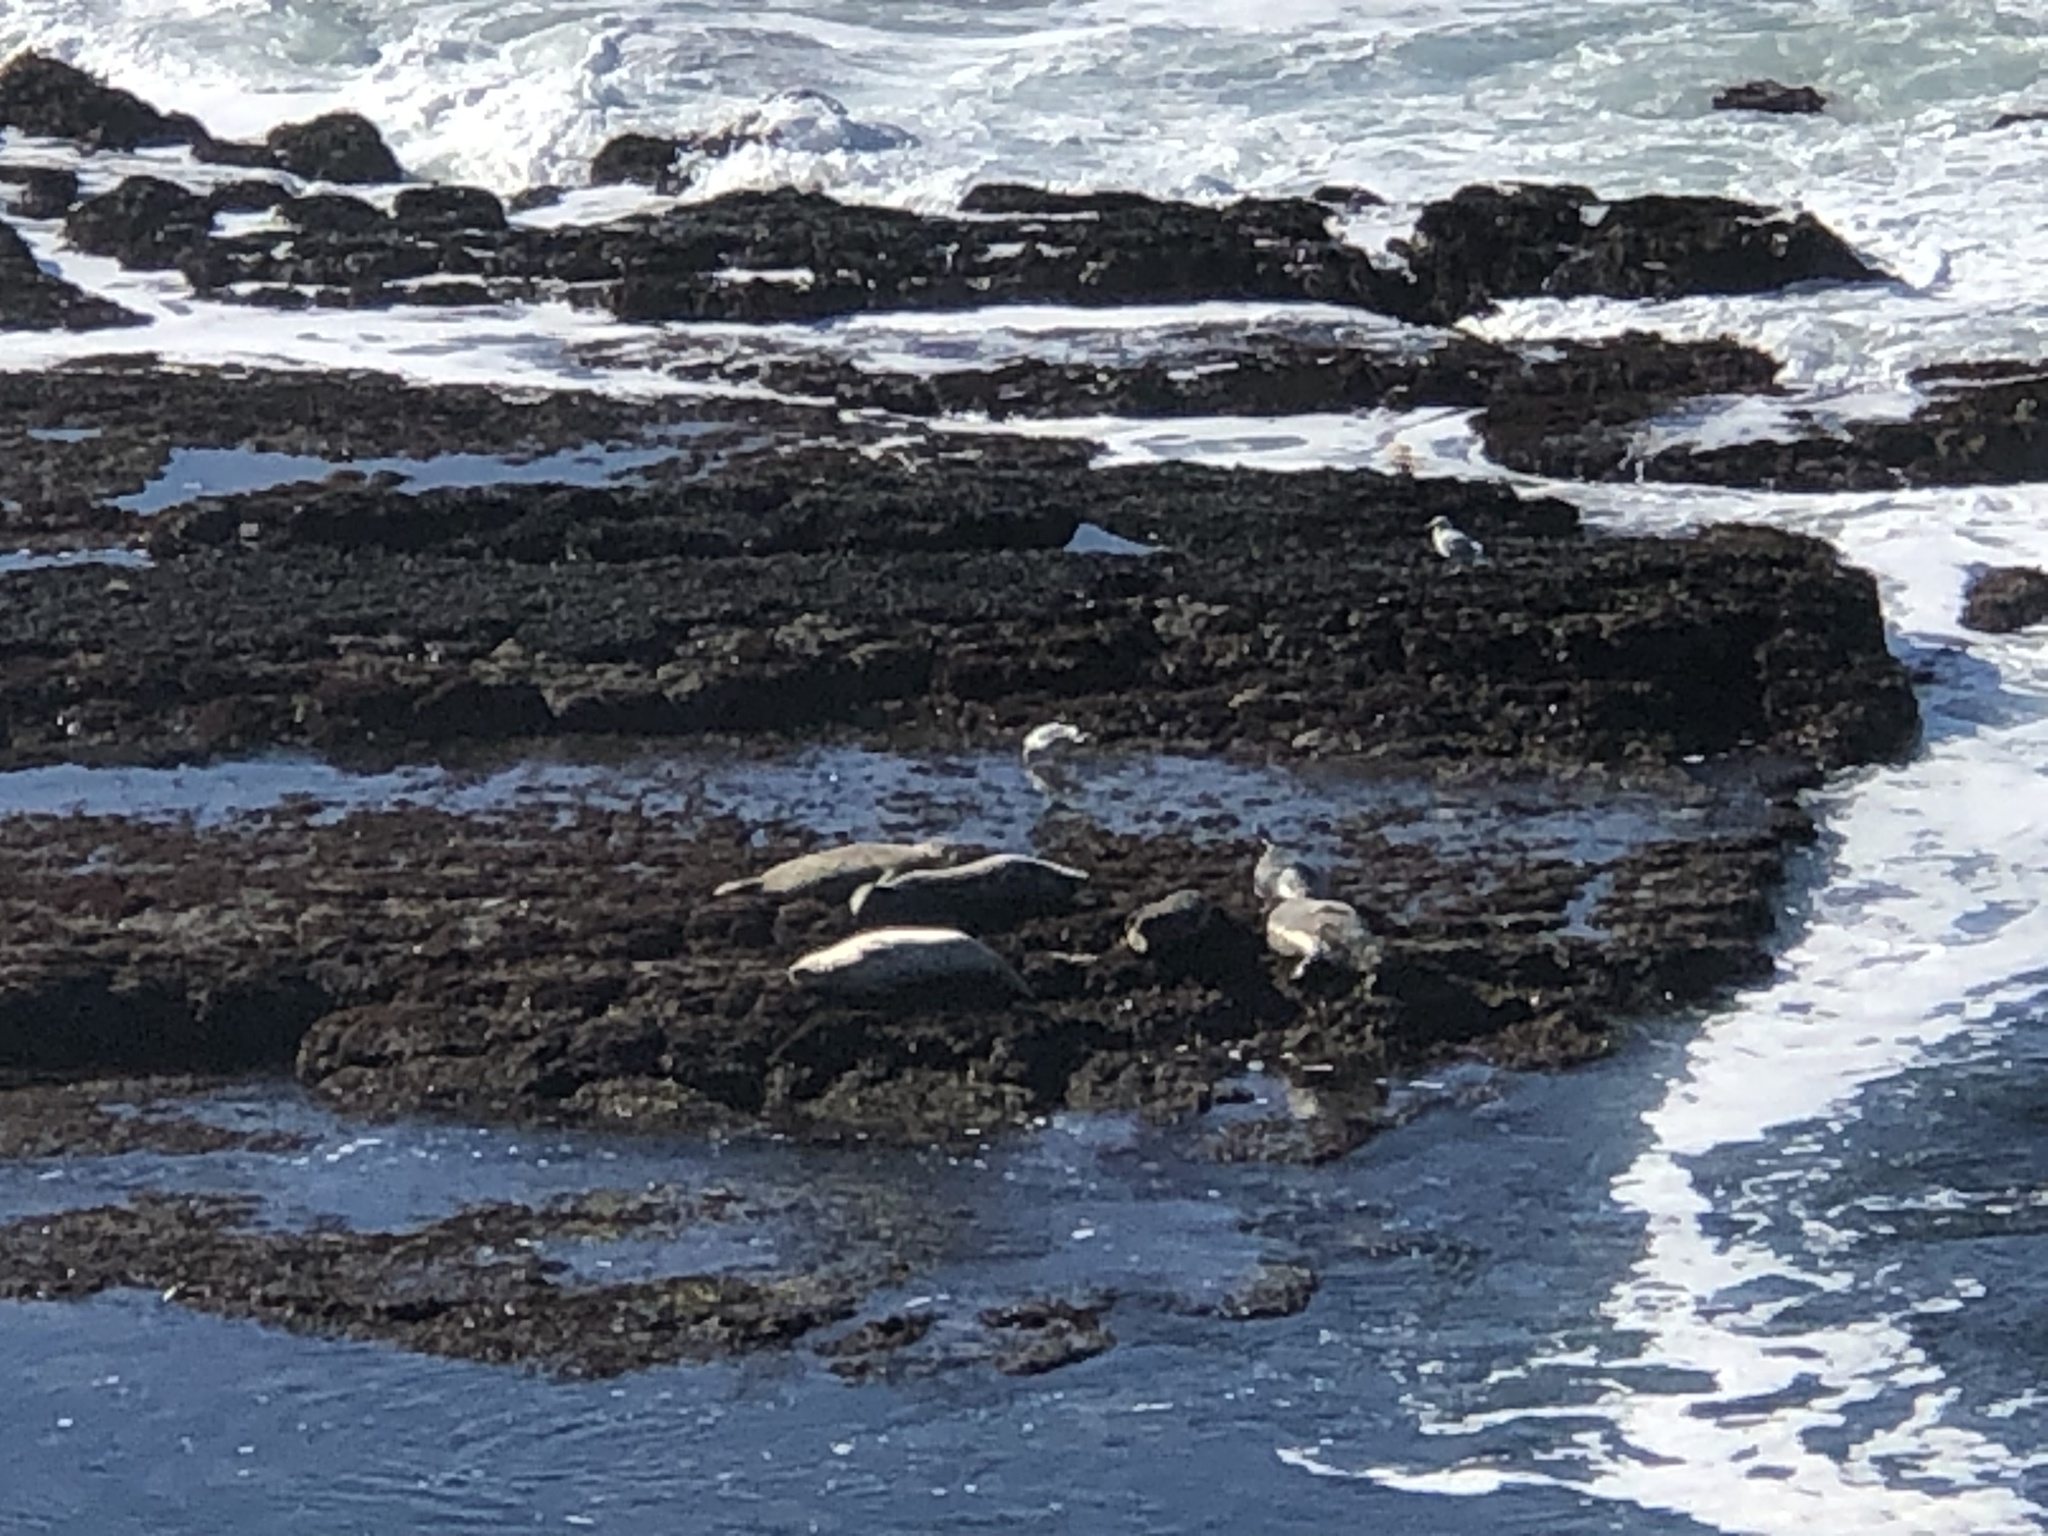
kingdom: Animalia
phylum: Chordata
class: Mammalia
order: Carnivora
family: Phocidae
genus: Phoca
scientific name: Phoca vitulina
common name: Harbor seal
